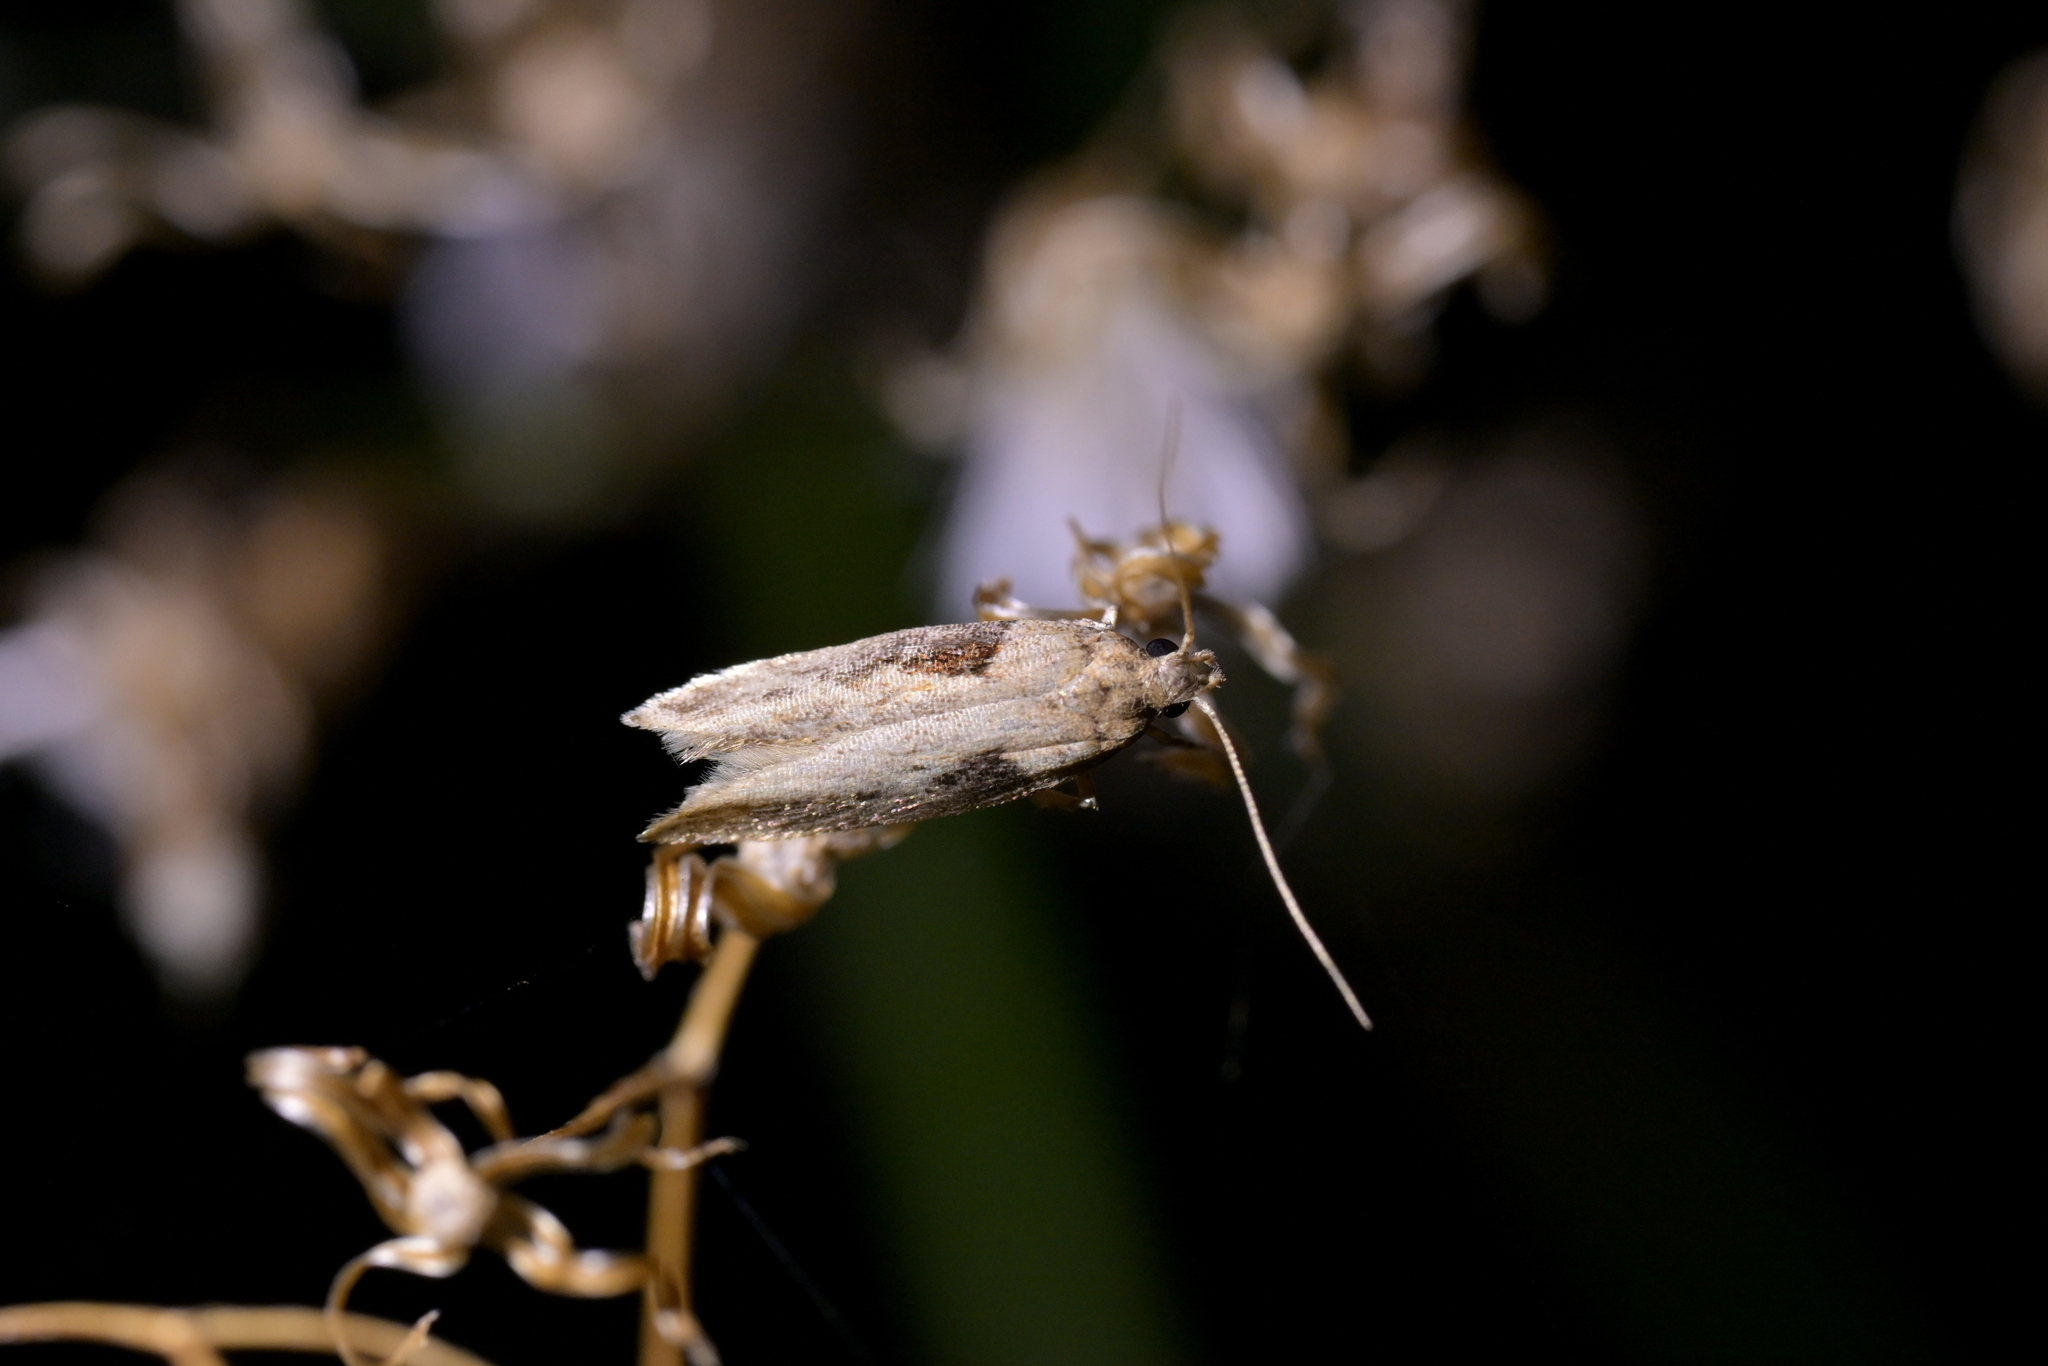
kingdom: Animalia
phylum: Arthropoda
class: Insecta
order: Lepidoptera
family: Gelechiidae
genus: Symmetrischema
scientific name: Symmetrischema tangolias
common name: Moth
